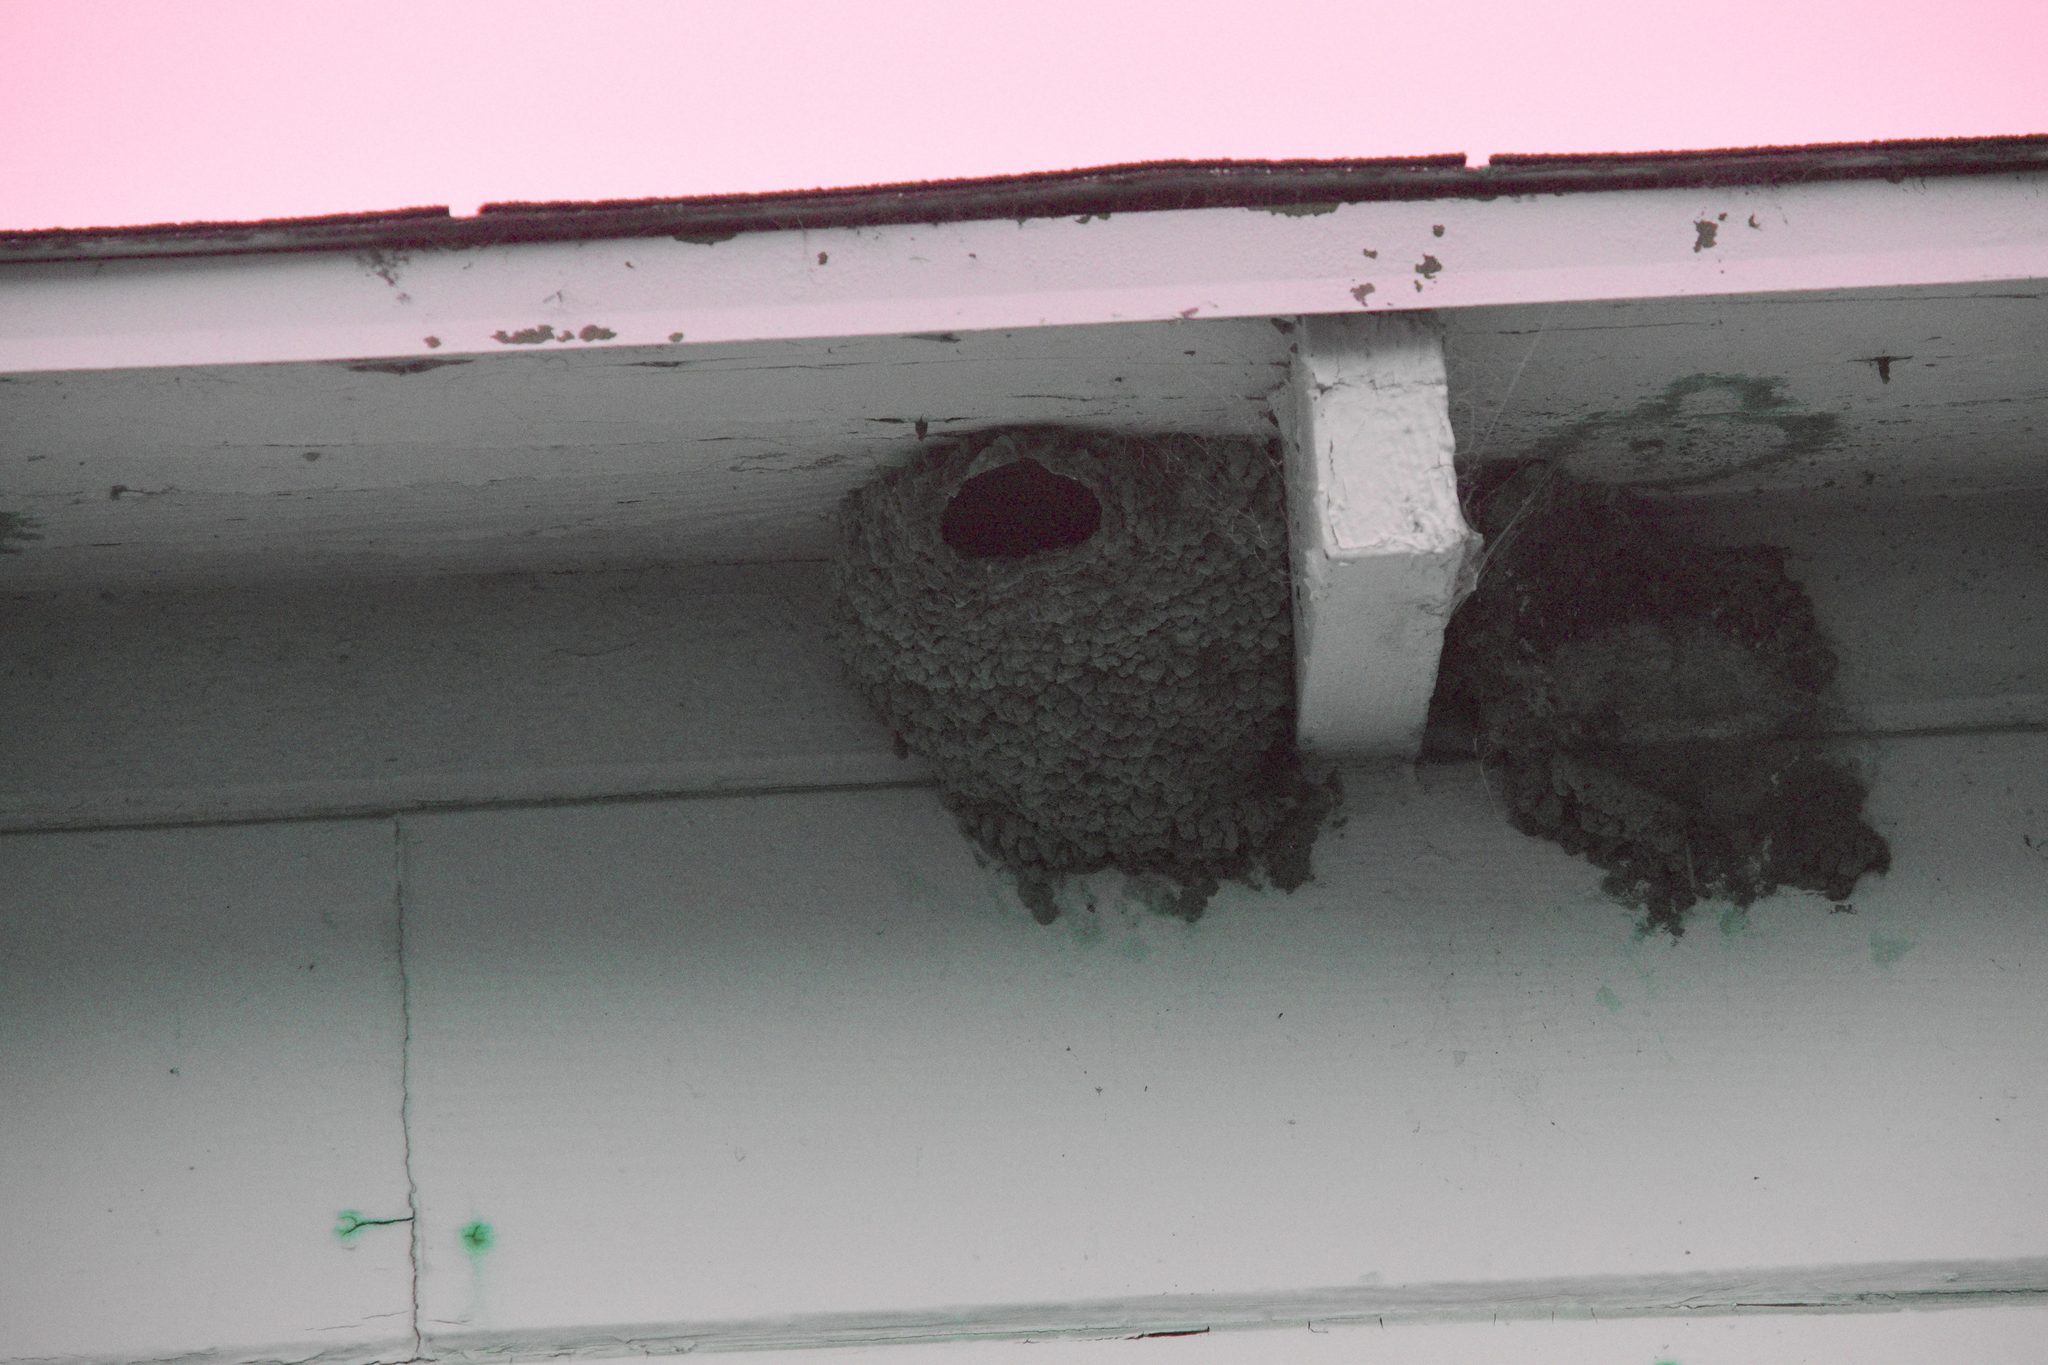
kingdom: Animalia
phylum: Chordata
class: Aves
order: Passeriformes
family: Hirundinidae
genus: Petrochelidon
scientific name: Petrochelidon pyrrhonota
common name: American cliff swallow
